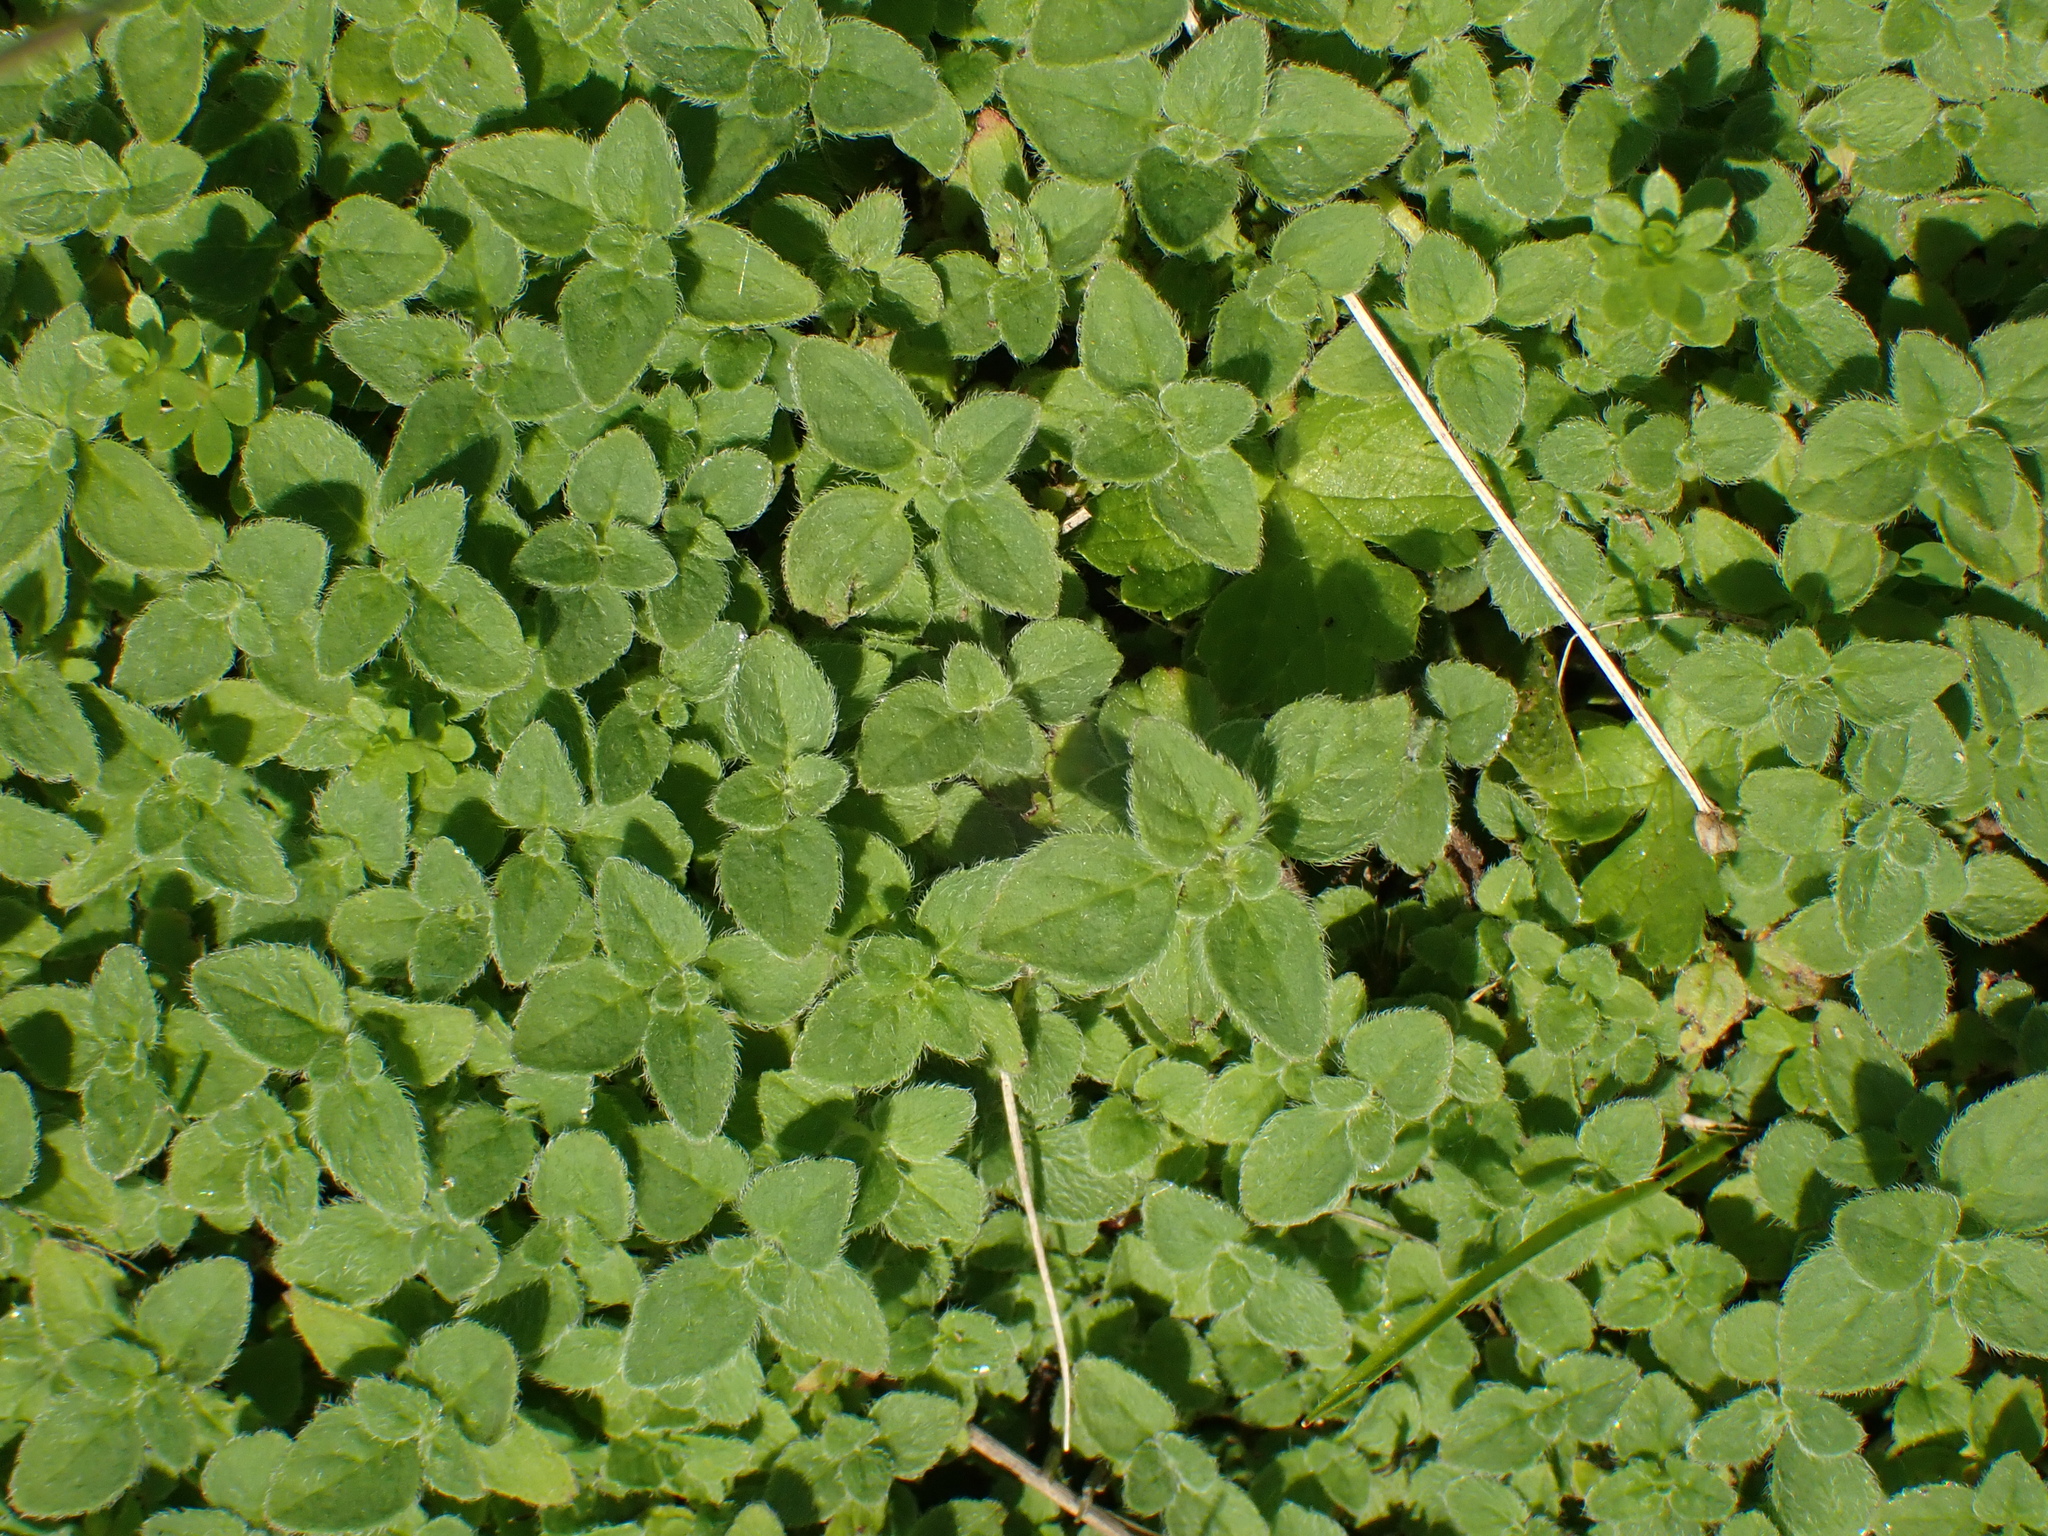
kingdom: Plantae
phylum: Tracheophyta
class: Magnoliopsida
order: Lamiales
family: Lamiaceae
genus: Origanum
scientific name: Origanum vulgare
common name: Wild marjoram
